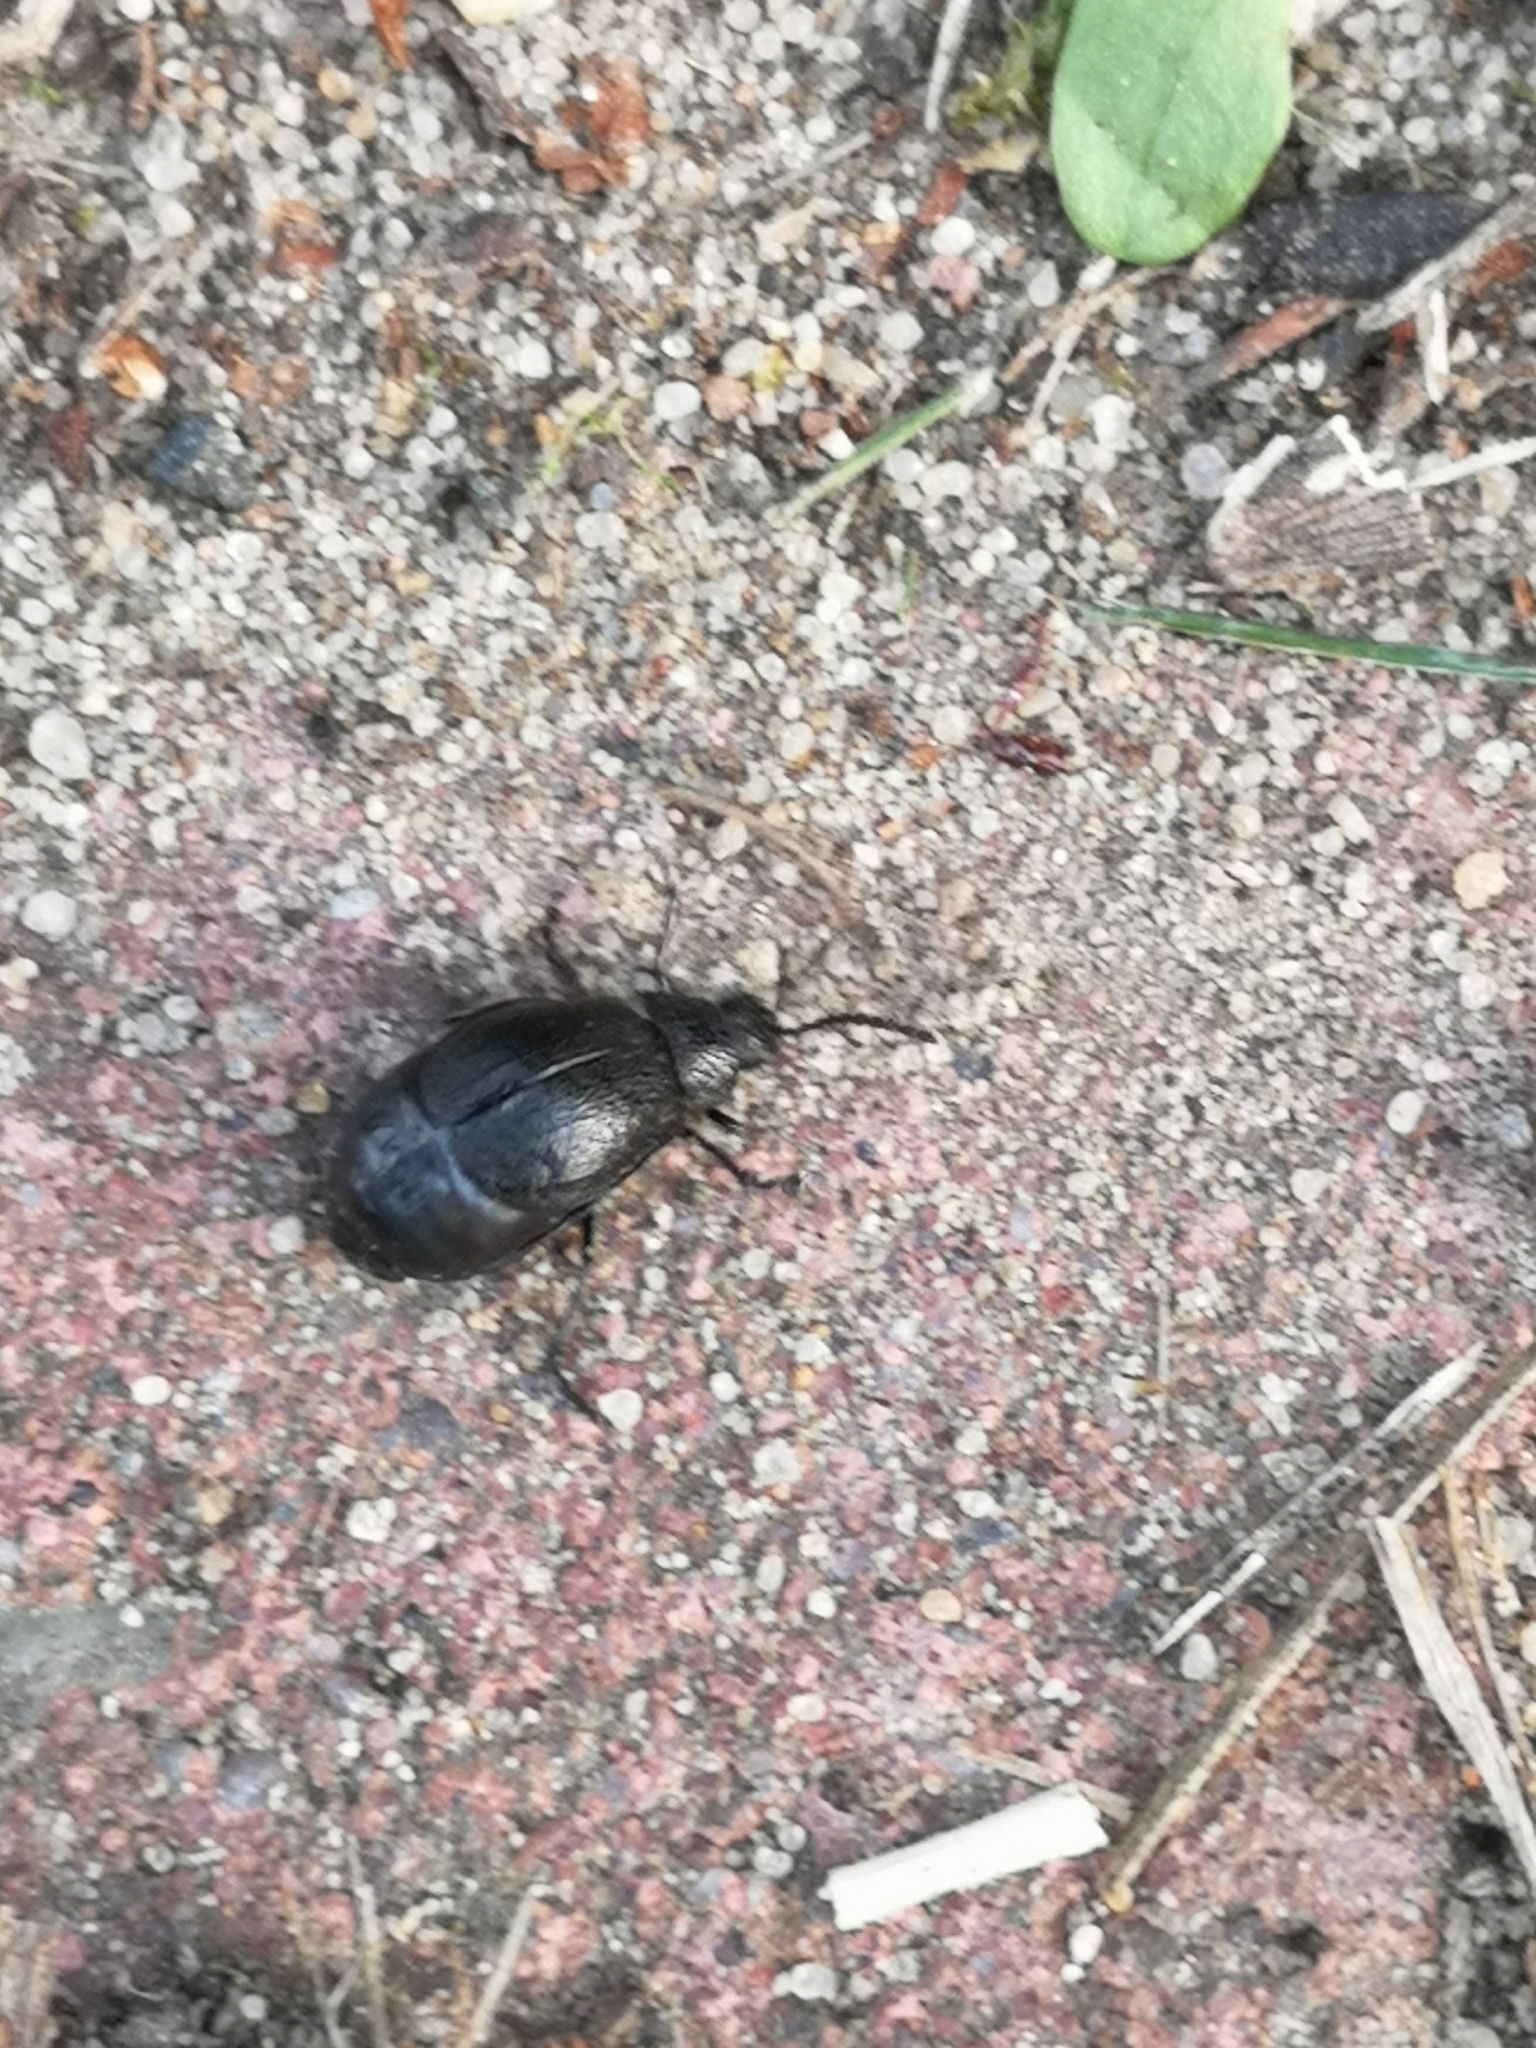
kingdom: Animalia
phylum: Arthropoda
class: Insecta
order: Coleoptera
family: Chrysomelidae
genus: Galeruca
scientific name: Galeruca tanaceti
